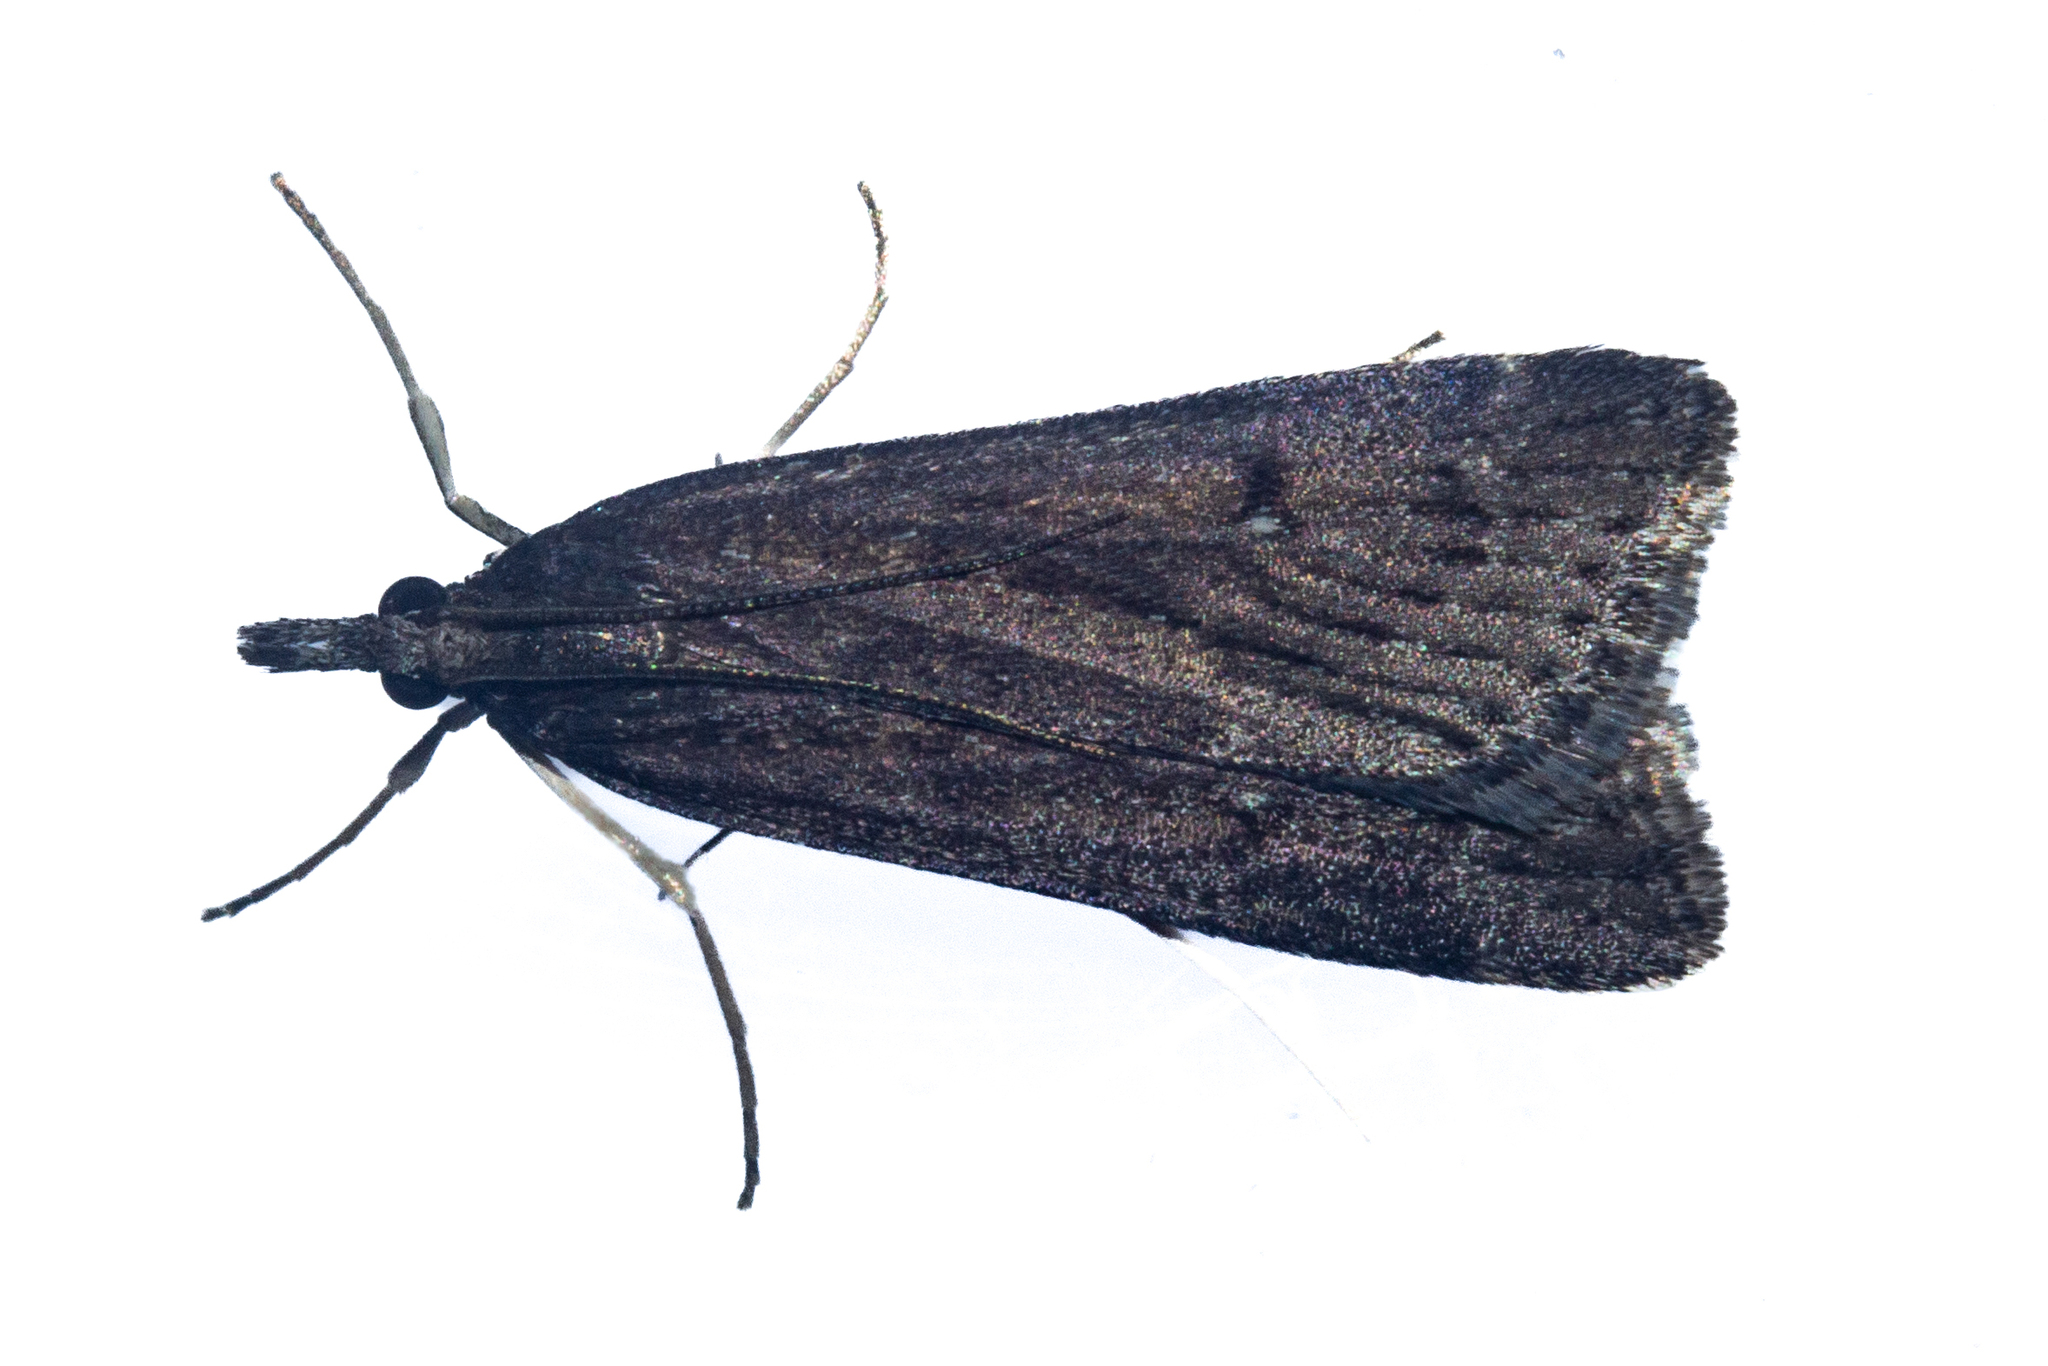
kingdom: Animalia
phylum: Arthropoda
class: Insecta
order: Lepidoptera
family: Crambidae
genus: Eudonia
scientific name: Eudonia oculata
